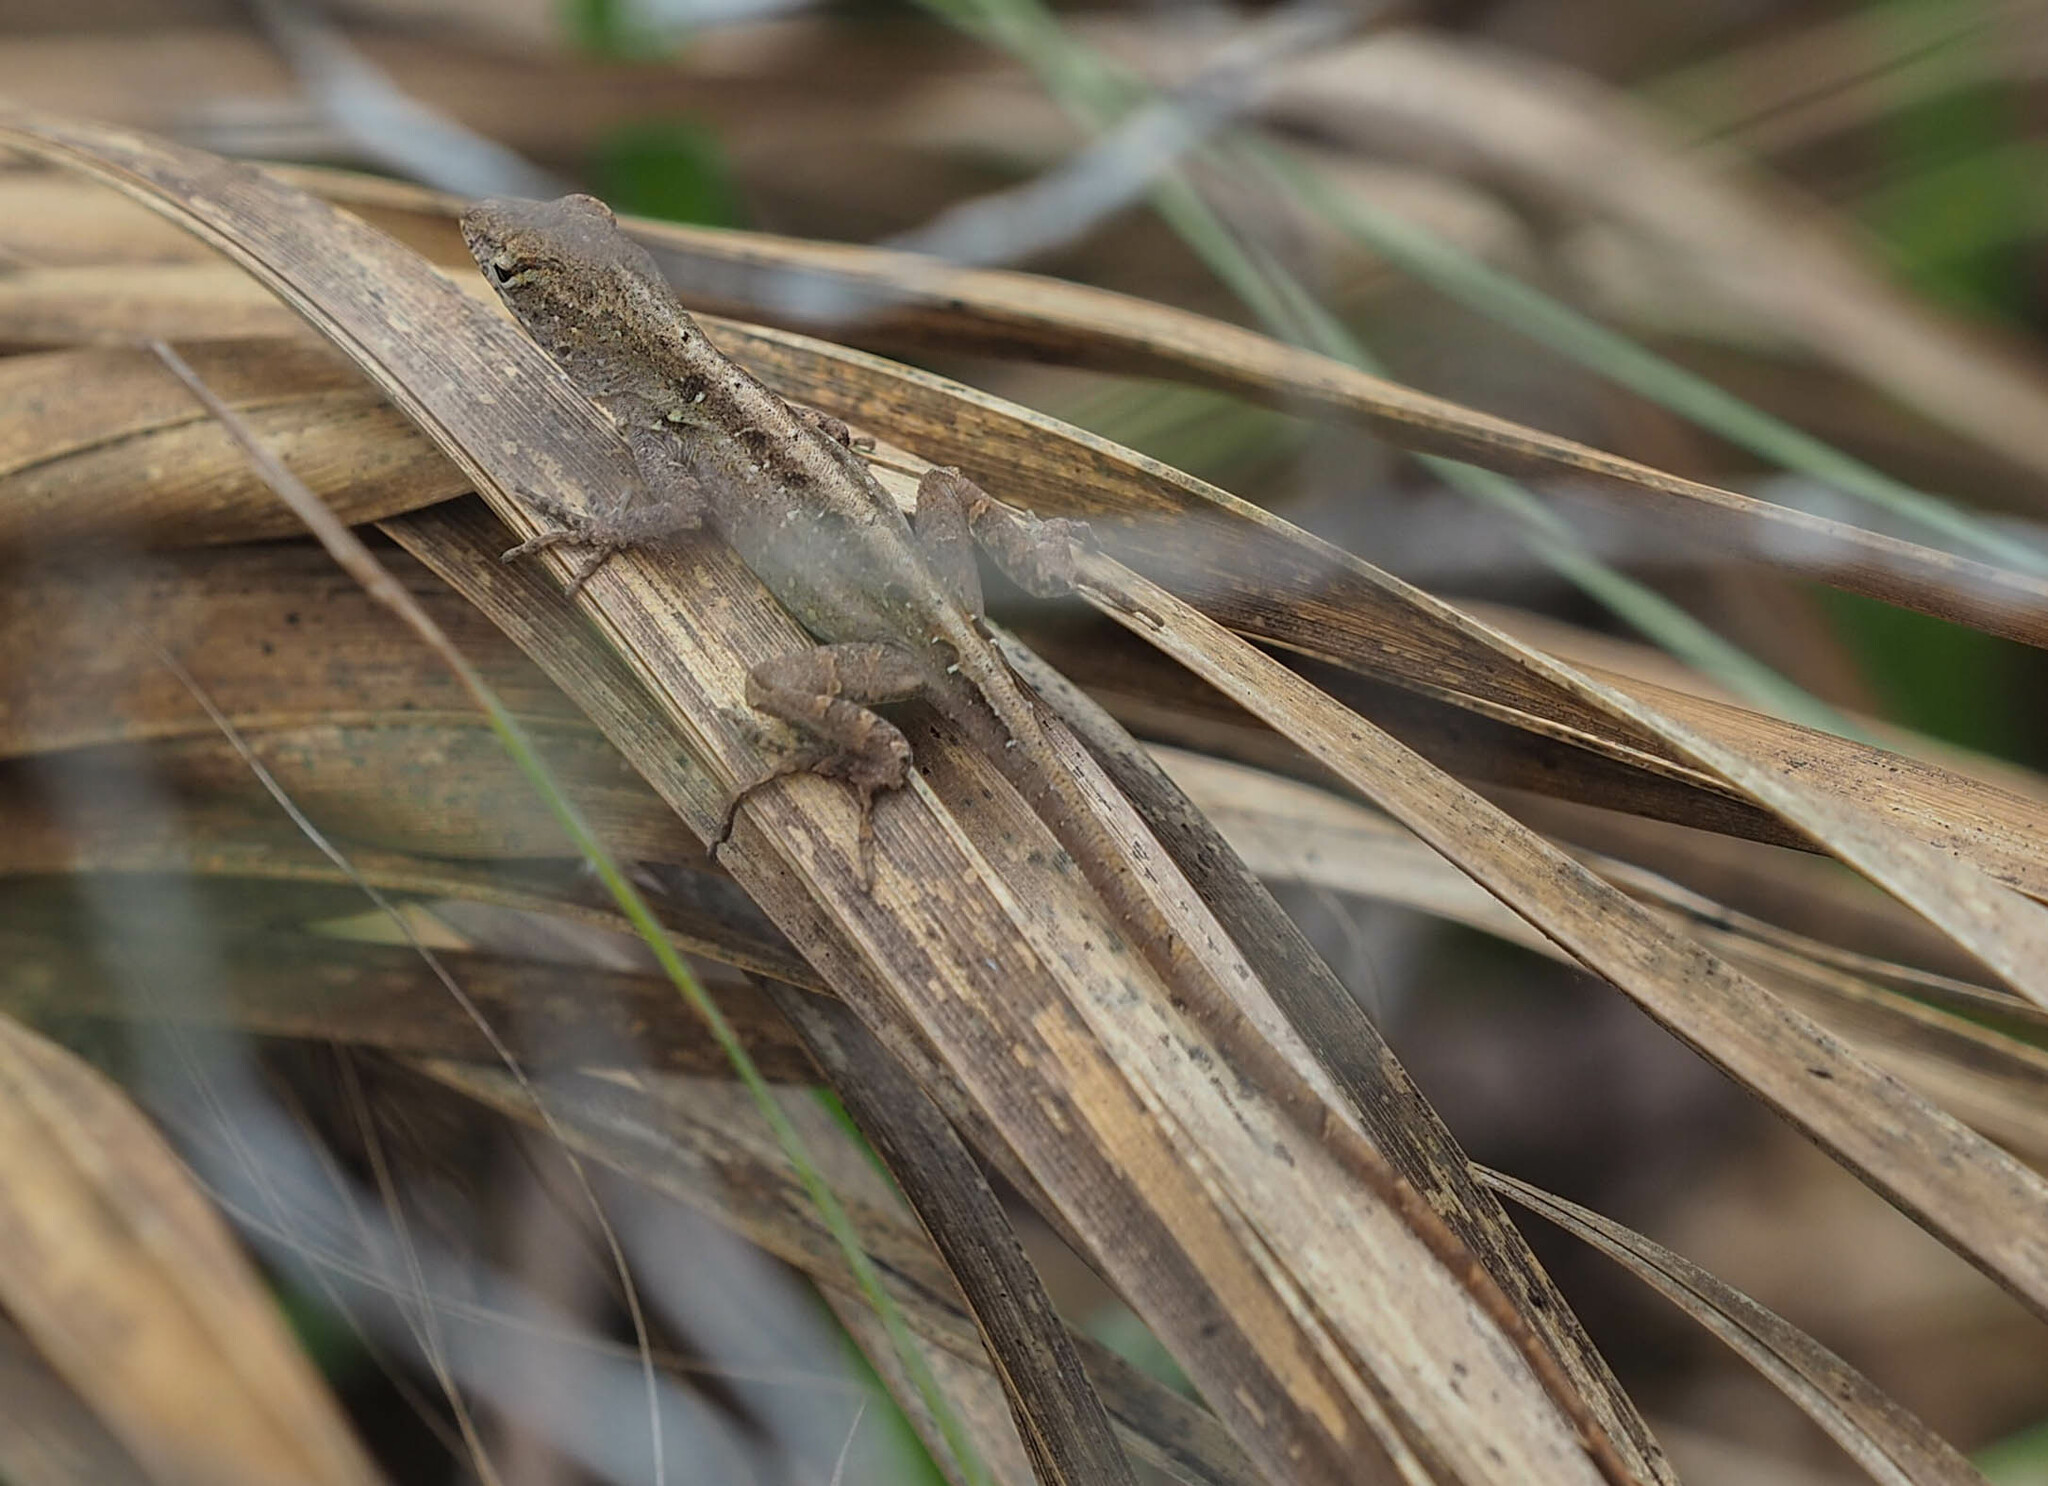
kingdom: Animalia
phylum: Chordata
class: Squamata
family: Dactyloidae
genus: Anolis
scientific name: Anolis sagrei
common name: Brown anole
